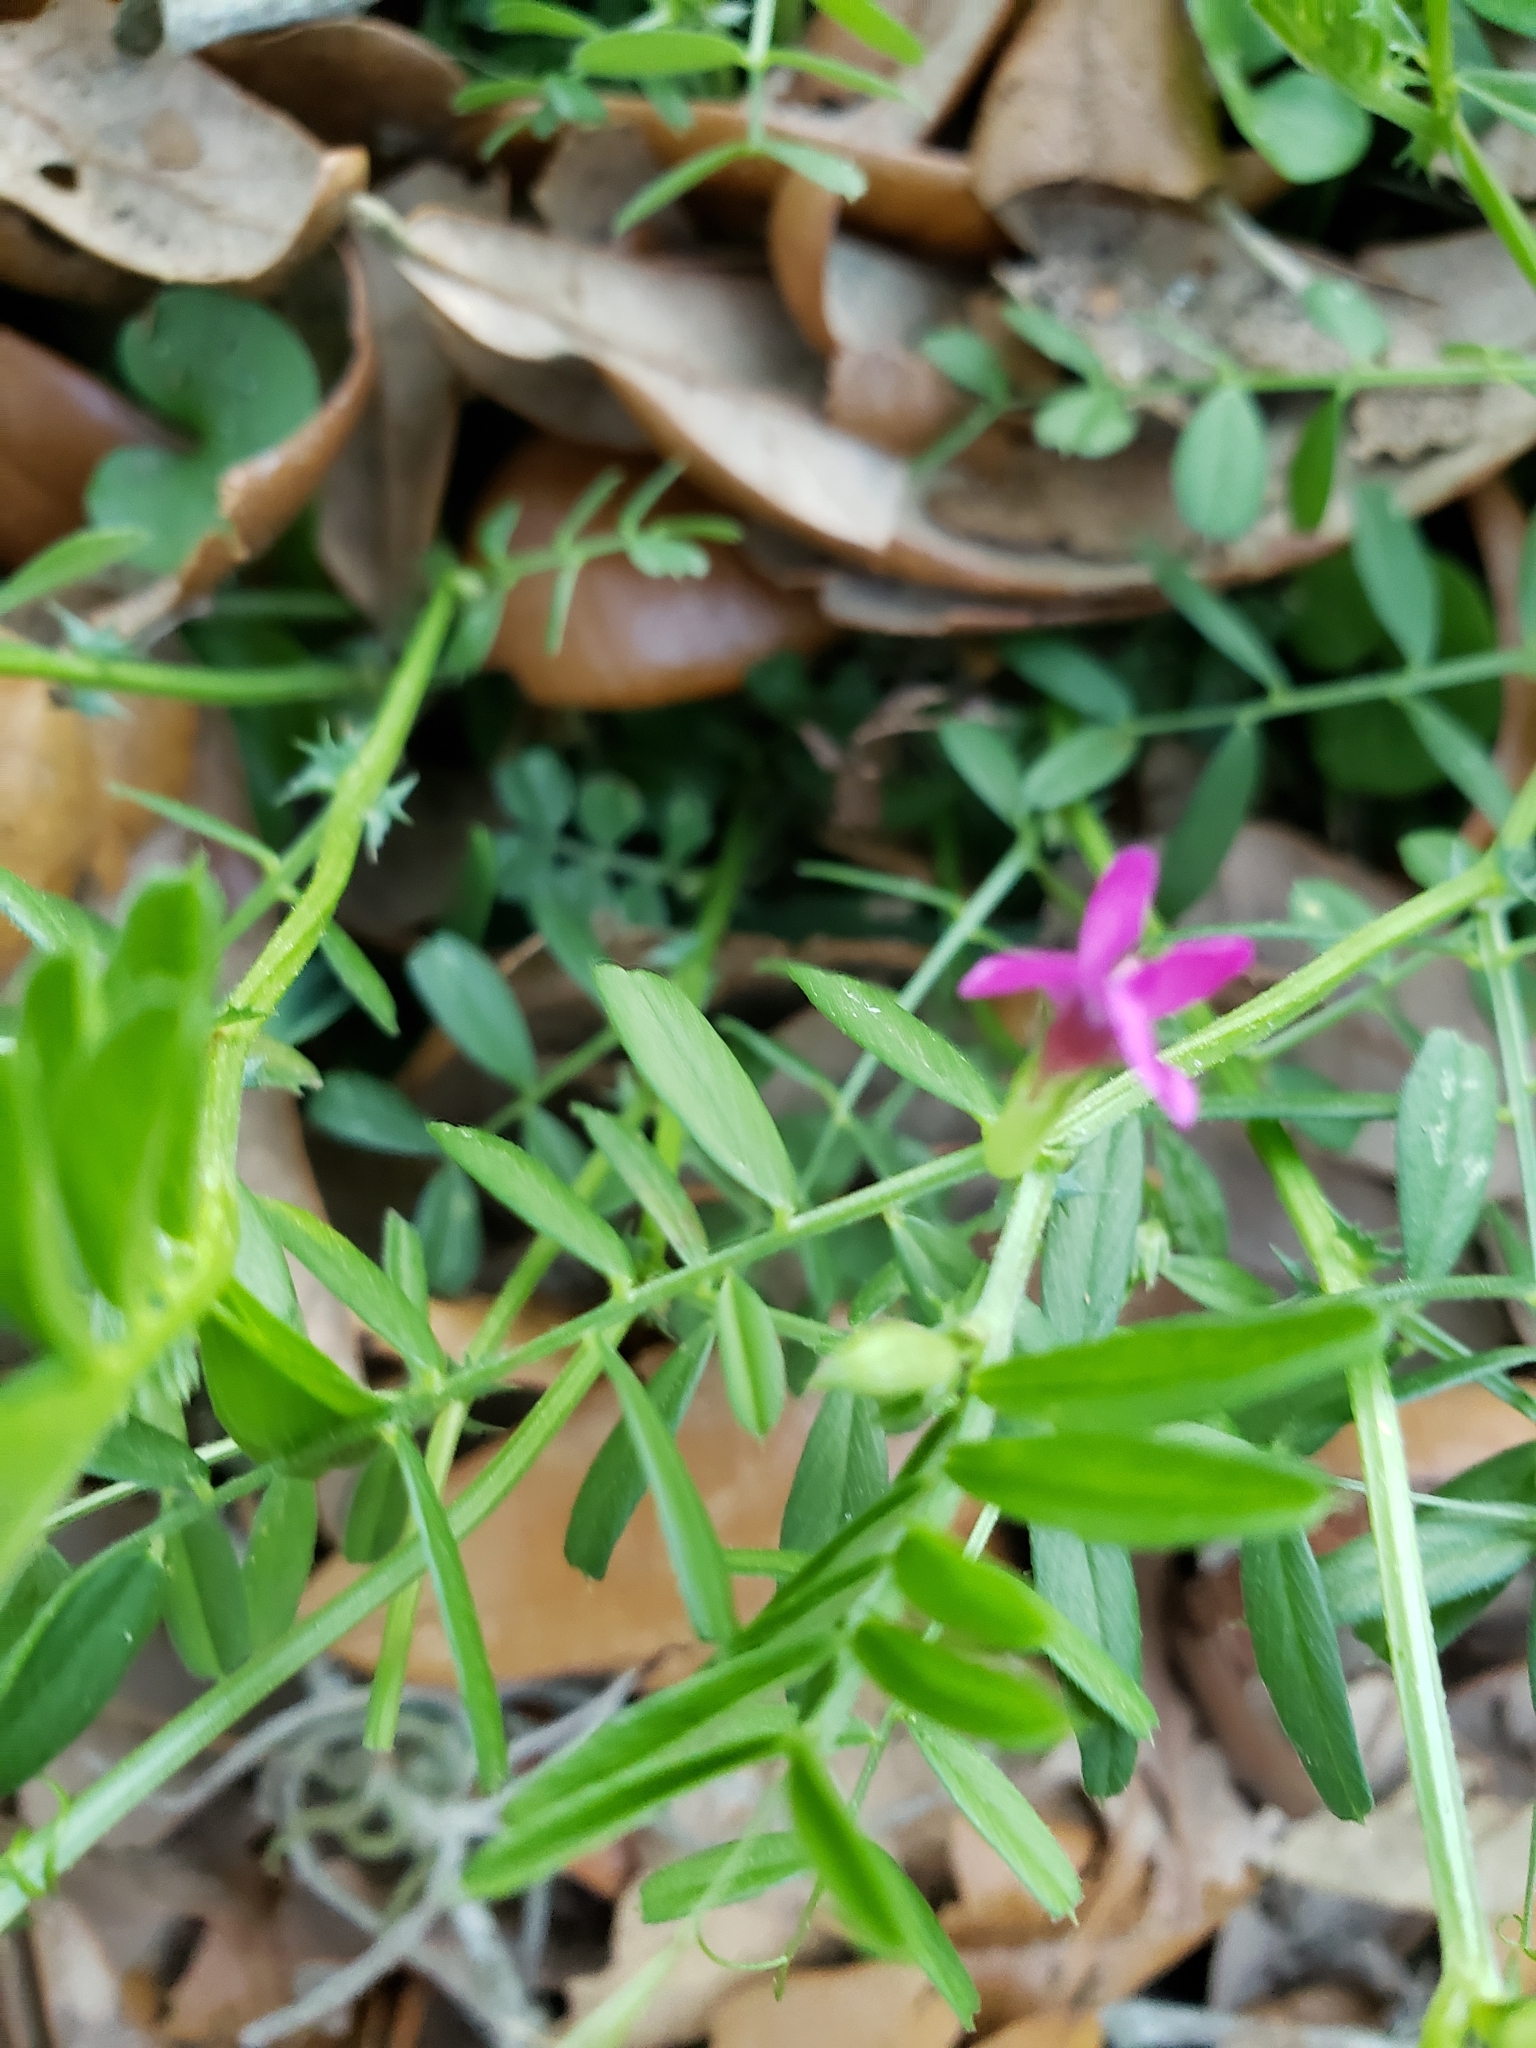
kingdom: Plantae
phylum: Tracheophyta
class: Magnoliopsida
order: Fabales
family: Fabaceae
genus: Vicia
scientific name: Vicia sativa
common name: Garden vetch
